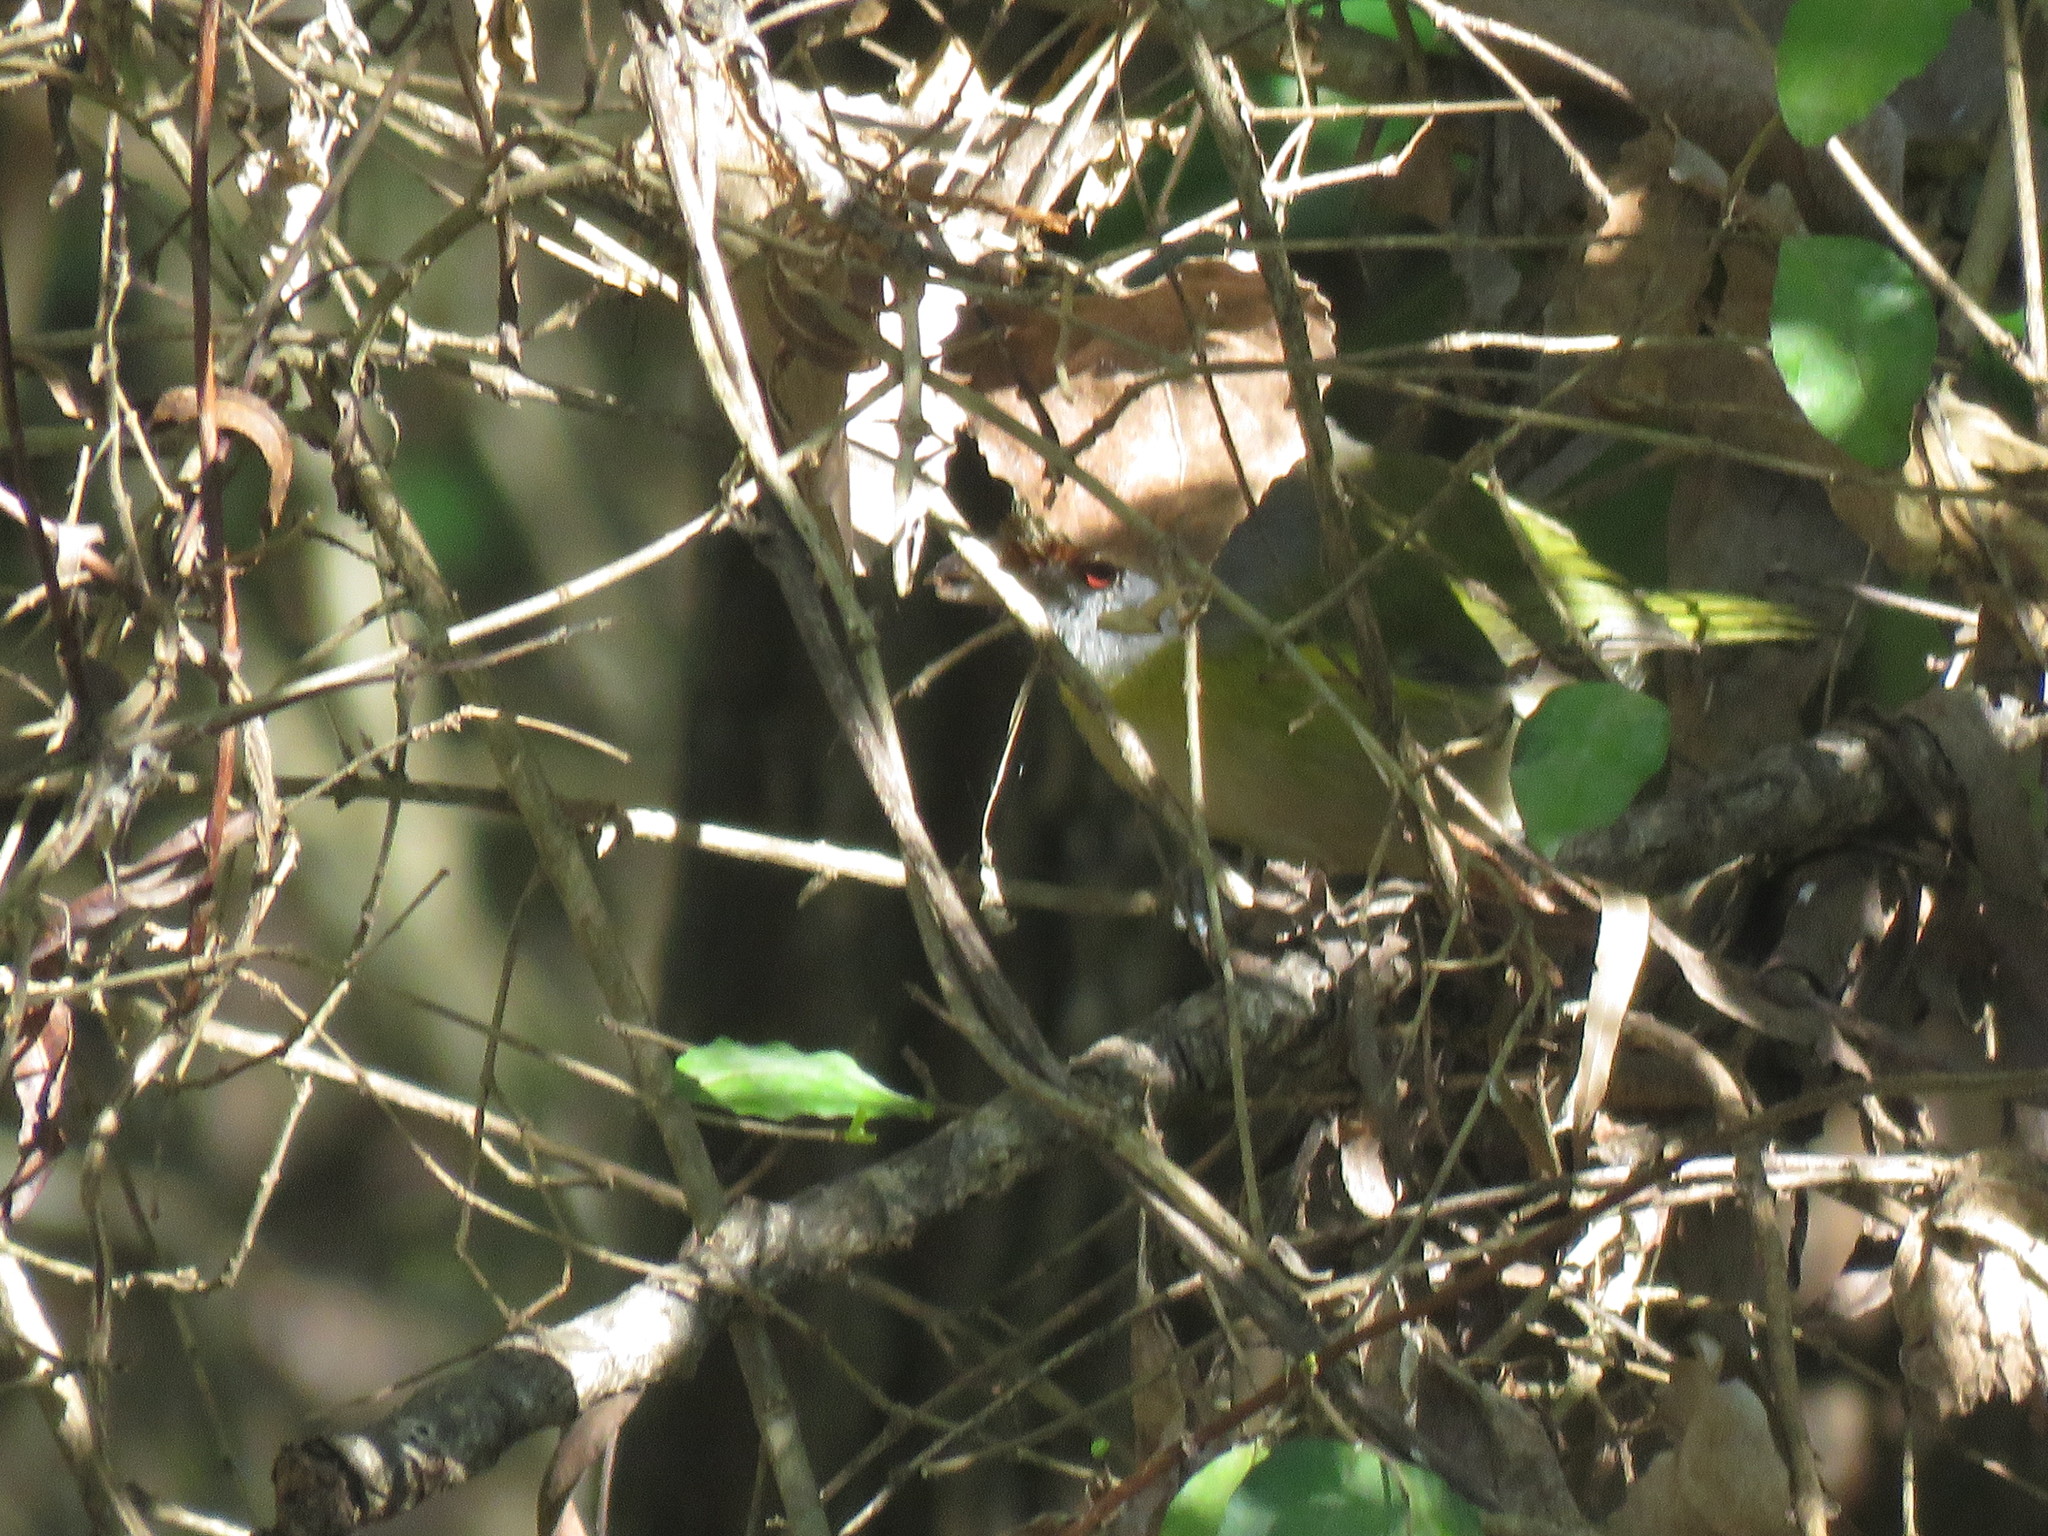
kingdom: Animalia
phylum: Chordata
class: Aves
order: Passeriformes
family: Vireonidae
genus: Cyclarhis
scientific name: Cyclarhis gujanensis
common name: Rufous-browed peppershrike
